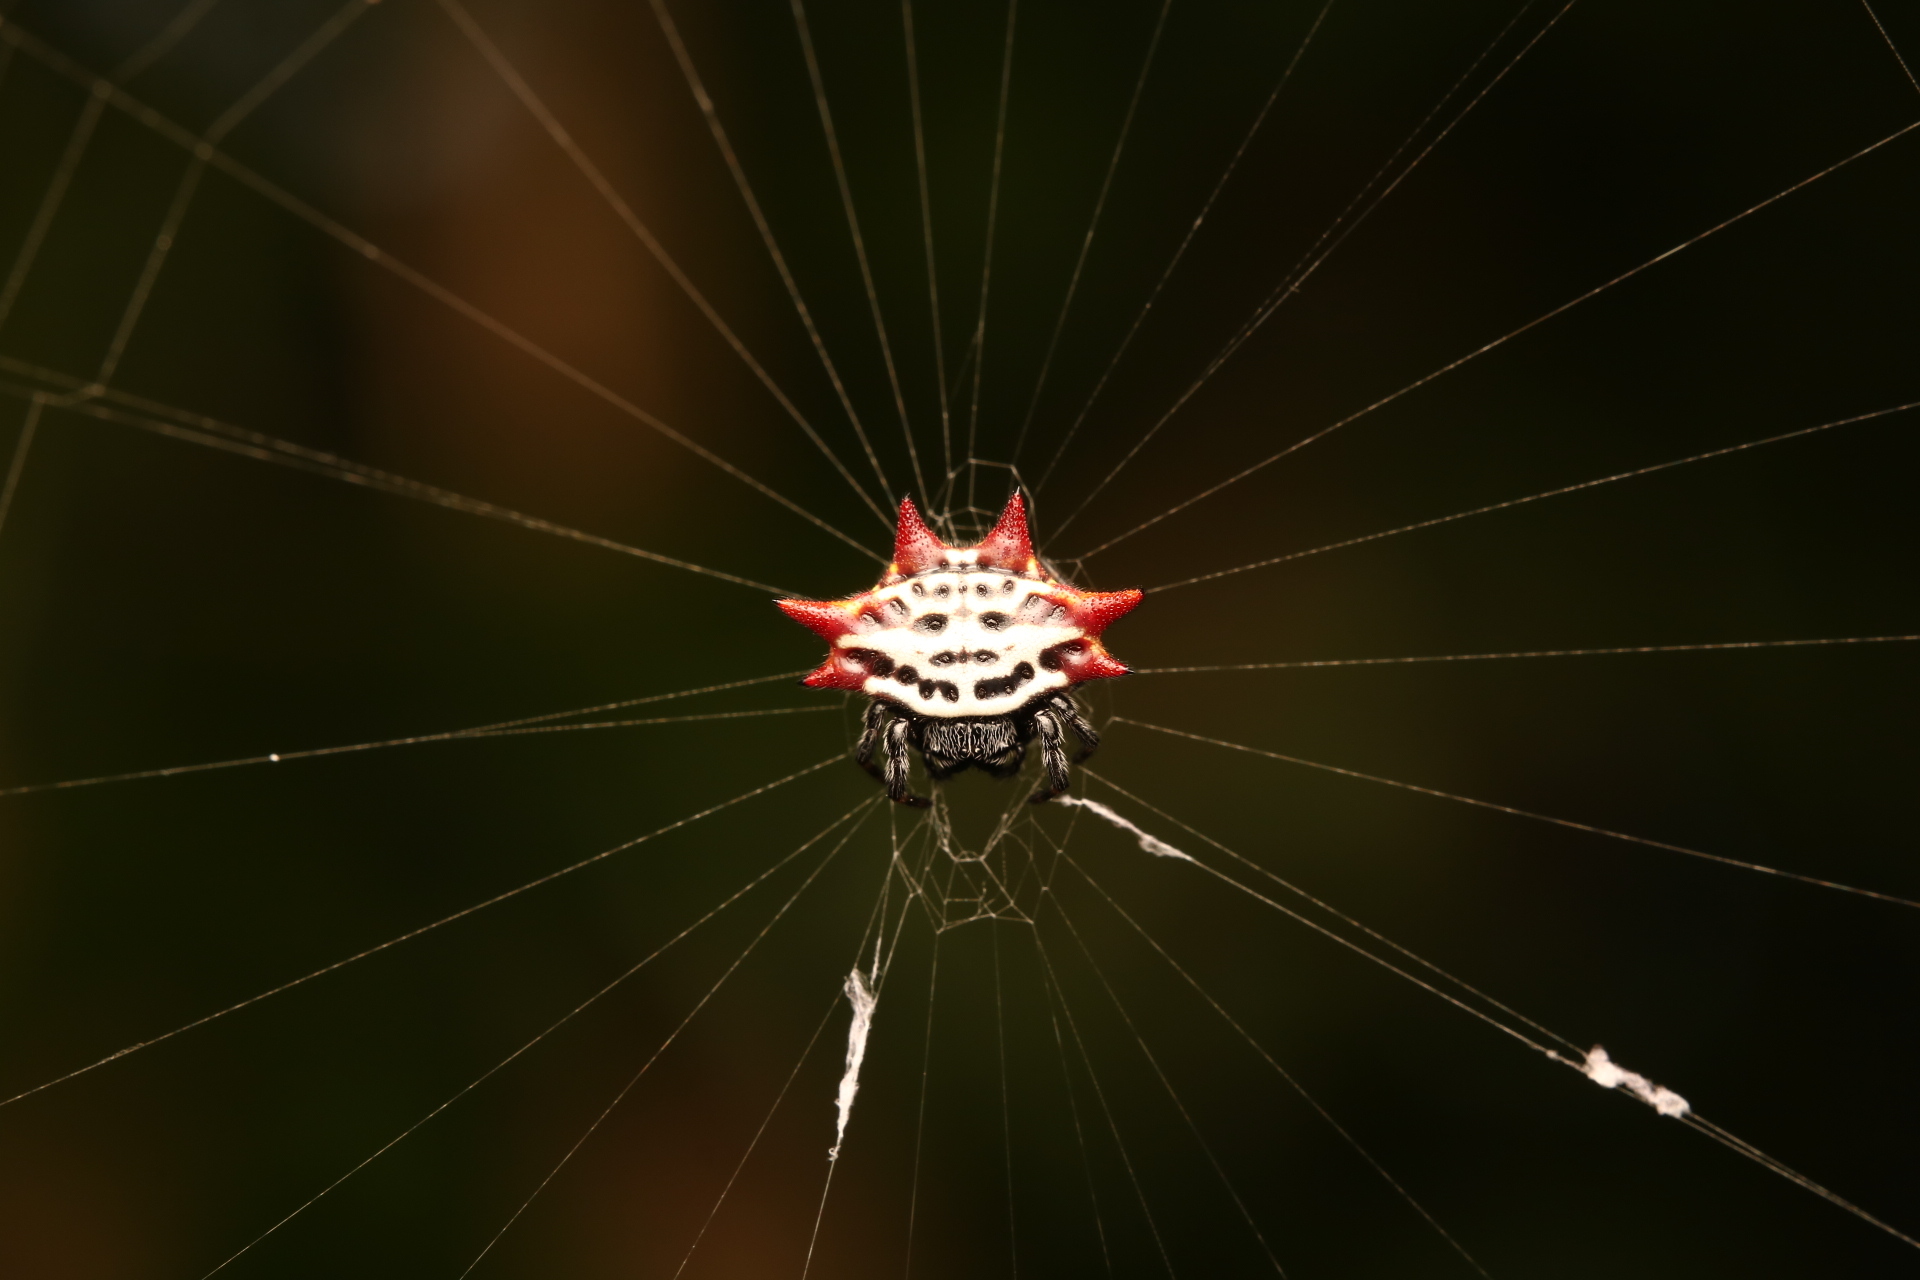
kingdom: Animalia
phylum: Arthropoda
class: Arachnida
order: Araneae
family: Araneidae
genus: Gasteracantha
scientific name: Gasteracantha cancriformis
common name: Orb weavers
